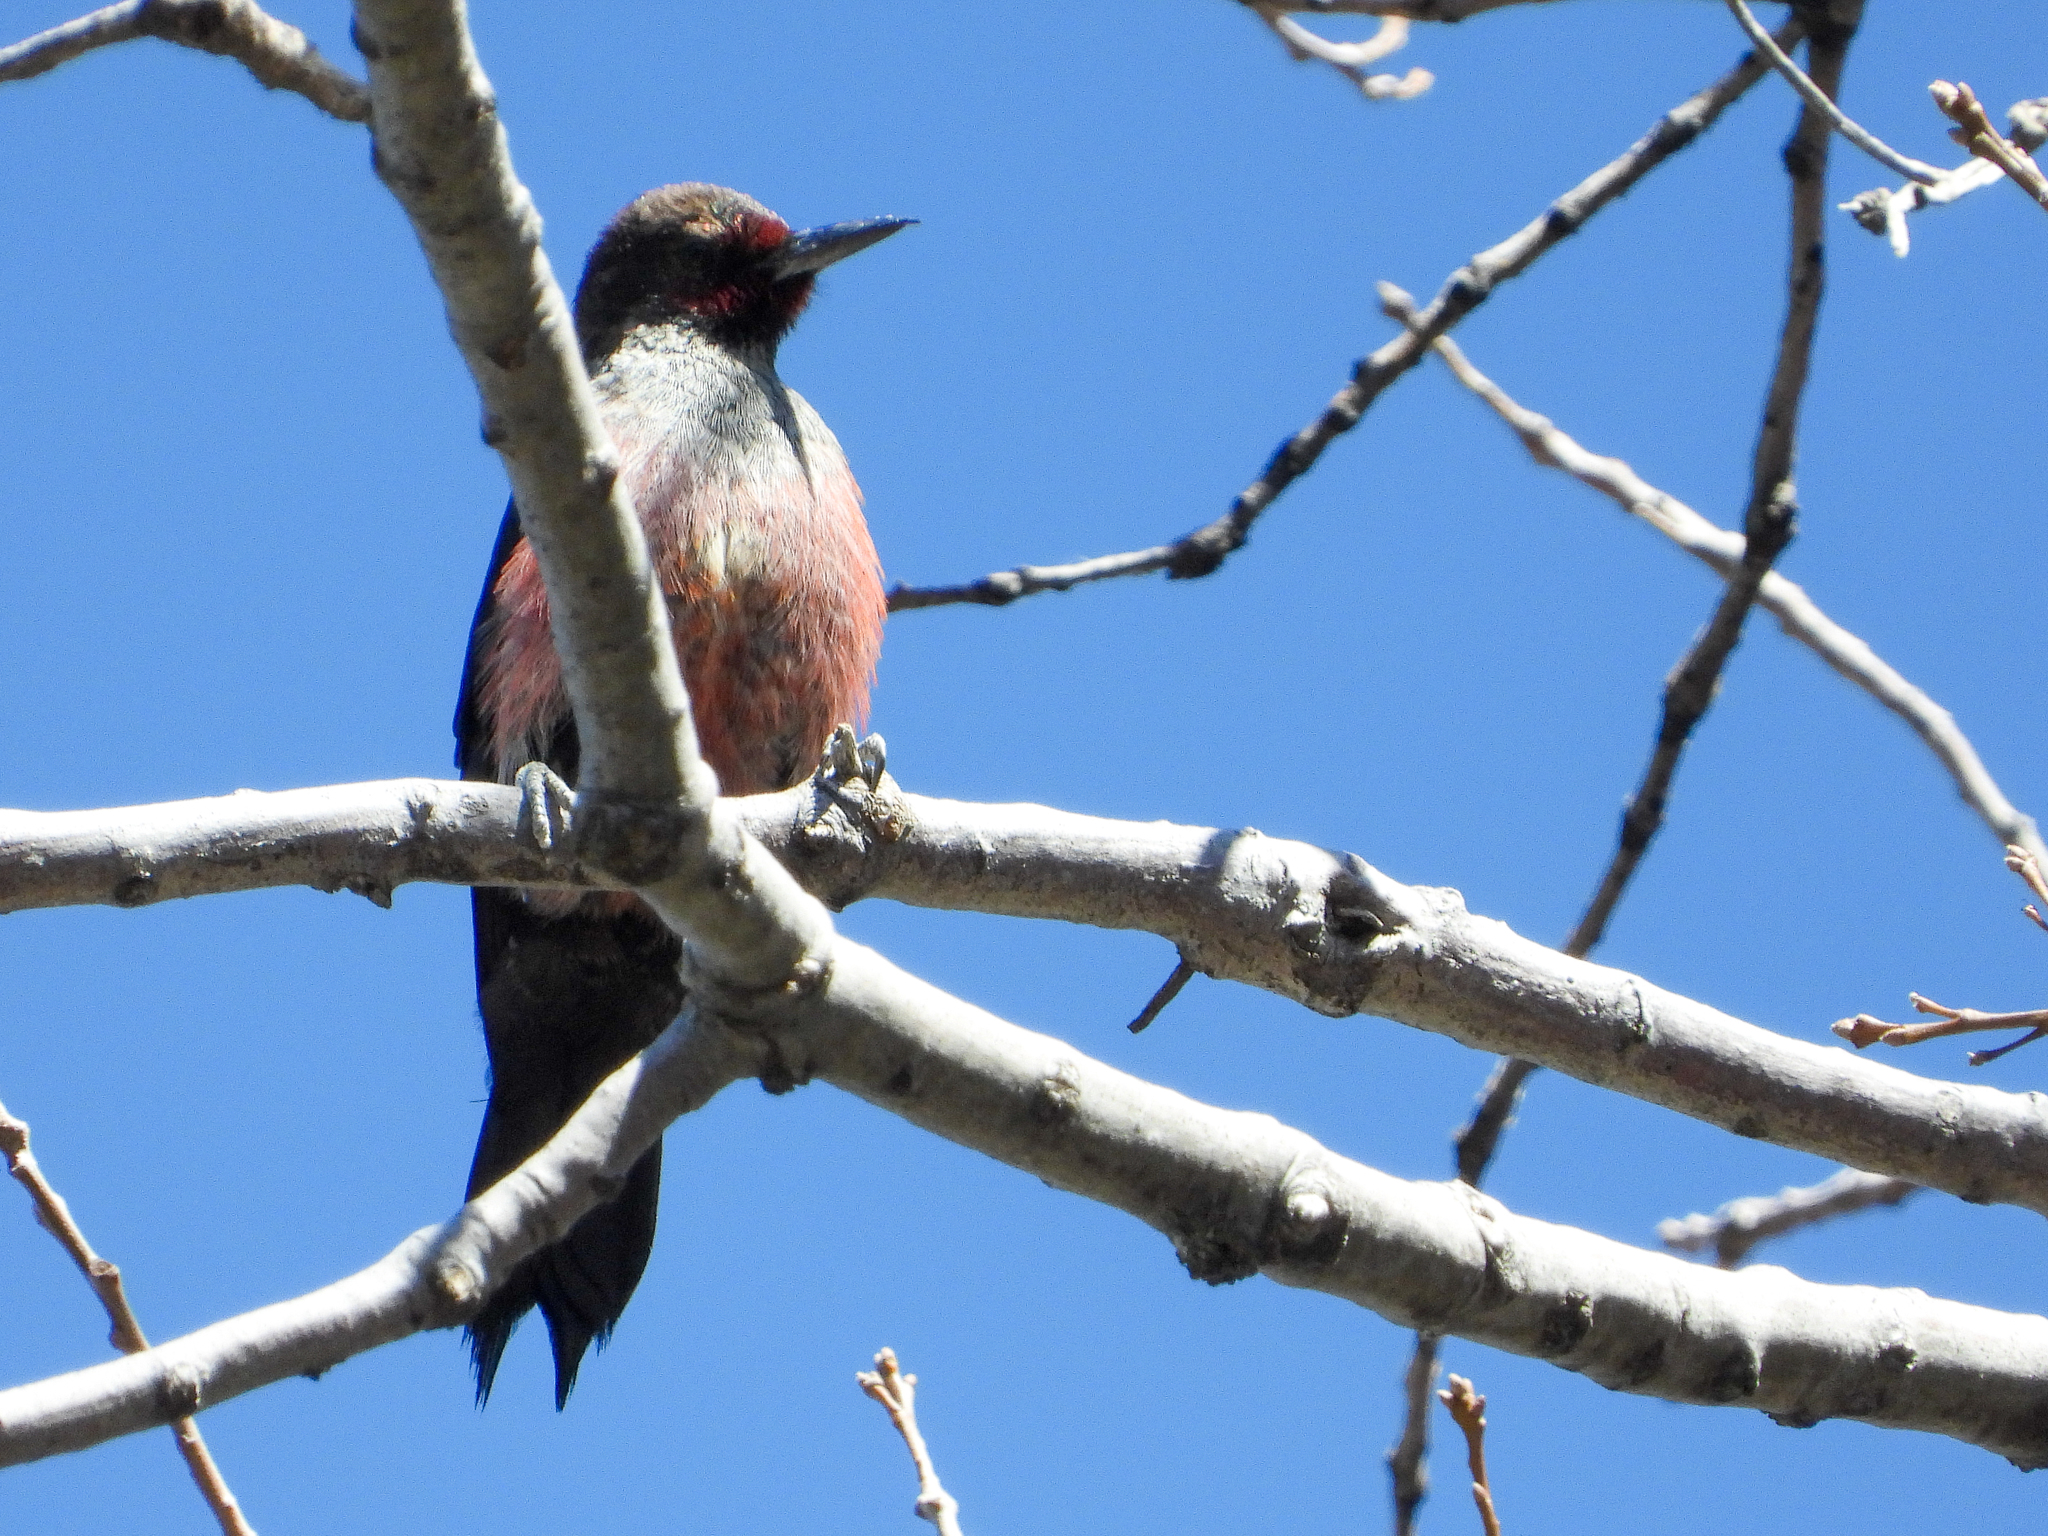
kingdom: Animalia
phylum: Chordata
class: Aves
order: Piciformes
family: Picidae
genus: Melanerpes
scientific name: Melanerpes lewis
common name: Lewis's woodpecker
